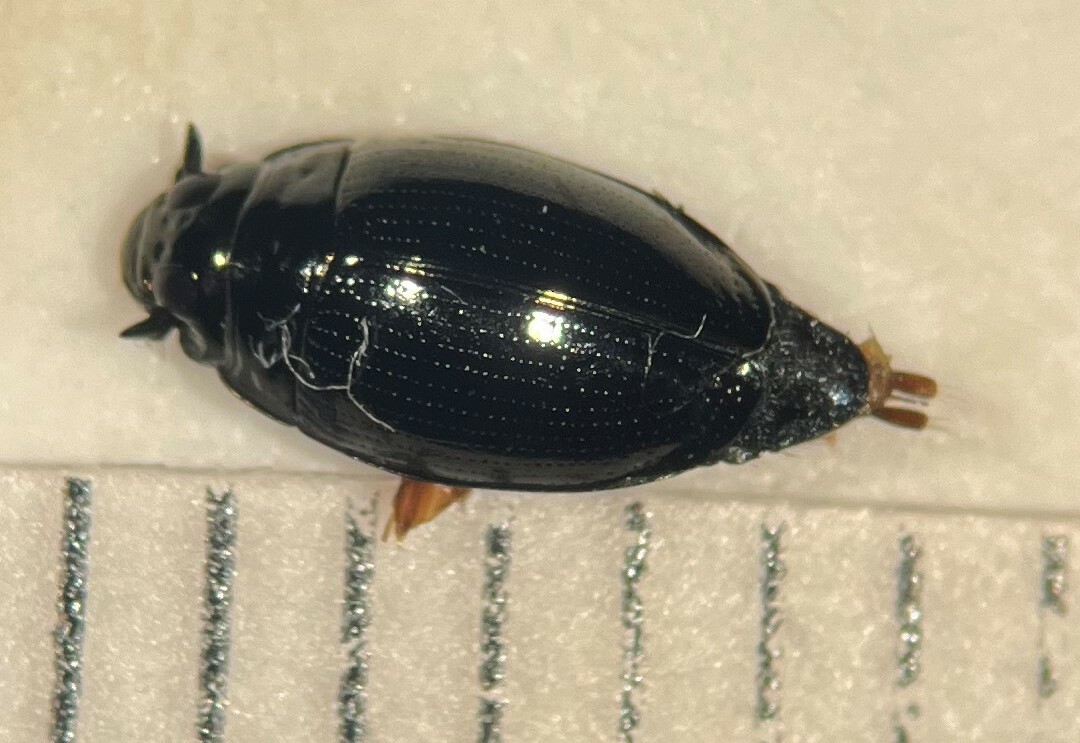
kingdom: Animalia
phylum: Arthropoda
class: Insecta
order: Coleoptera
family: Gyrinidae
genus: Gyrinus
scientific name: Gyrinus plicifer
